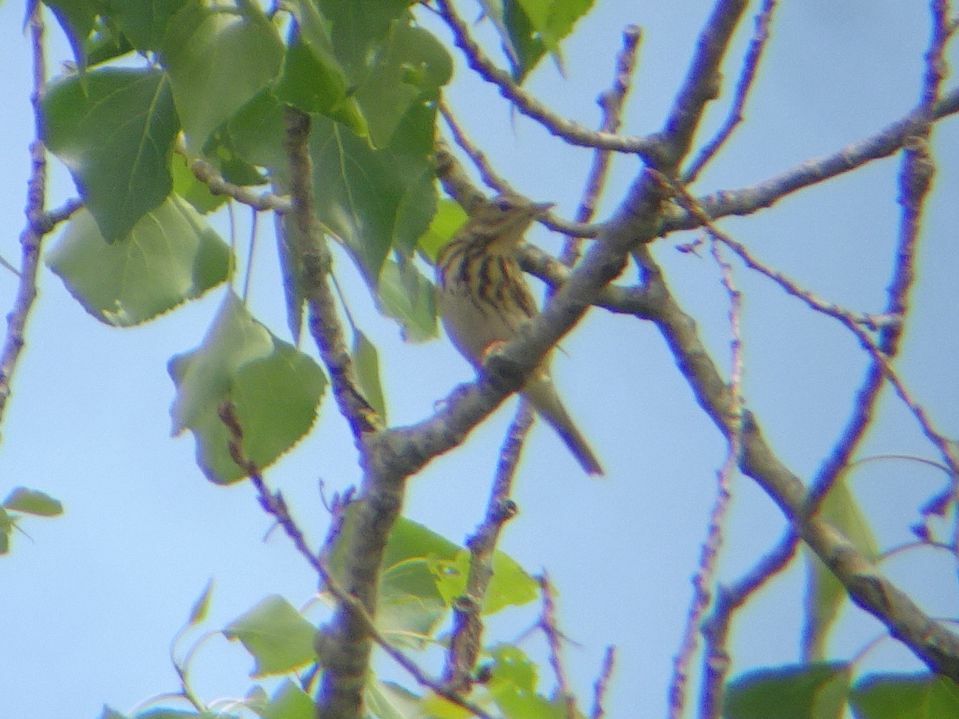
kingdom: Animalia
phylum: Chordata
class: Aves
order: Passeriformes
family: Motacillidae
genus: Anthus
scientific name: Anthus trivialis
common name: Tree pipit
